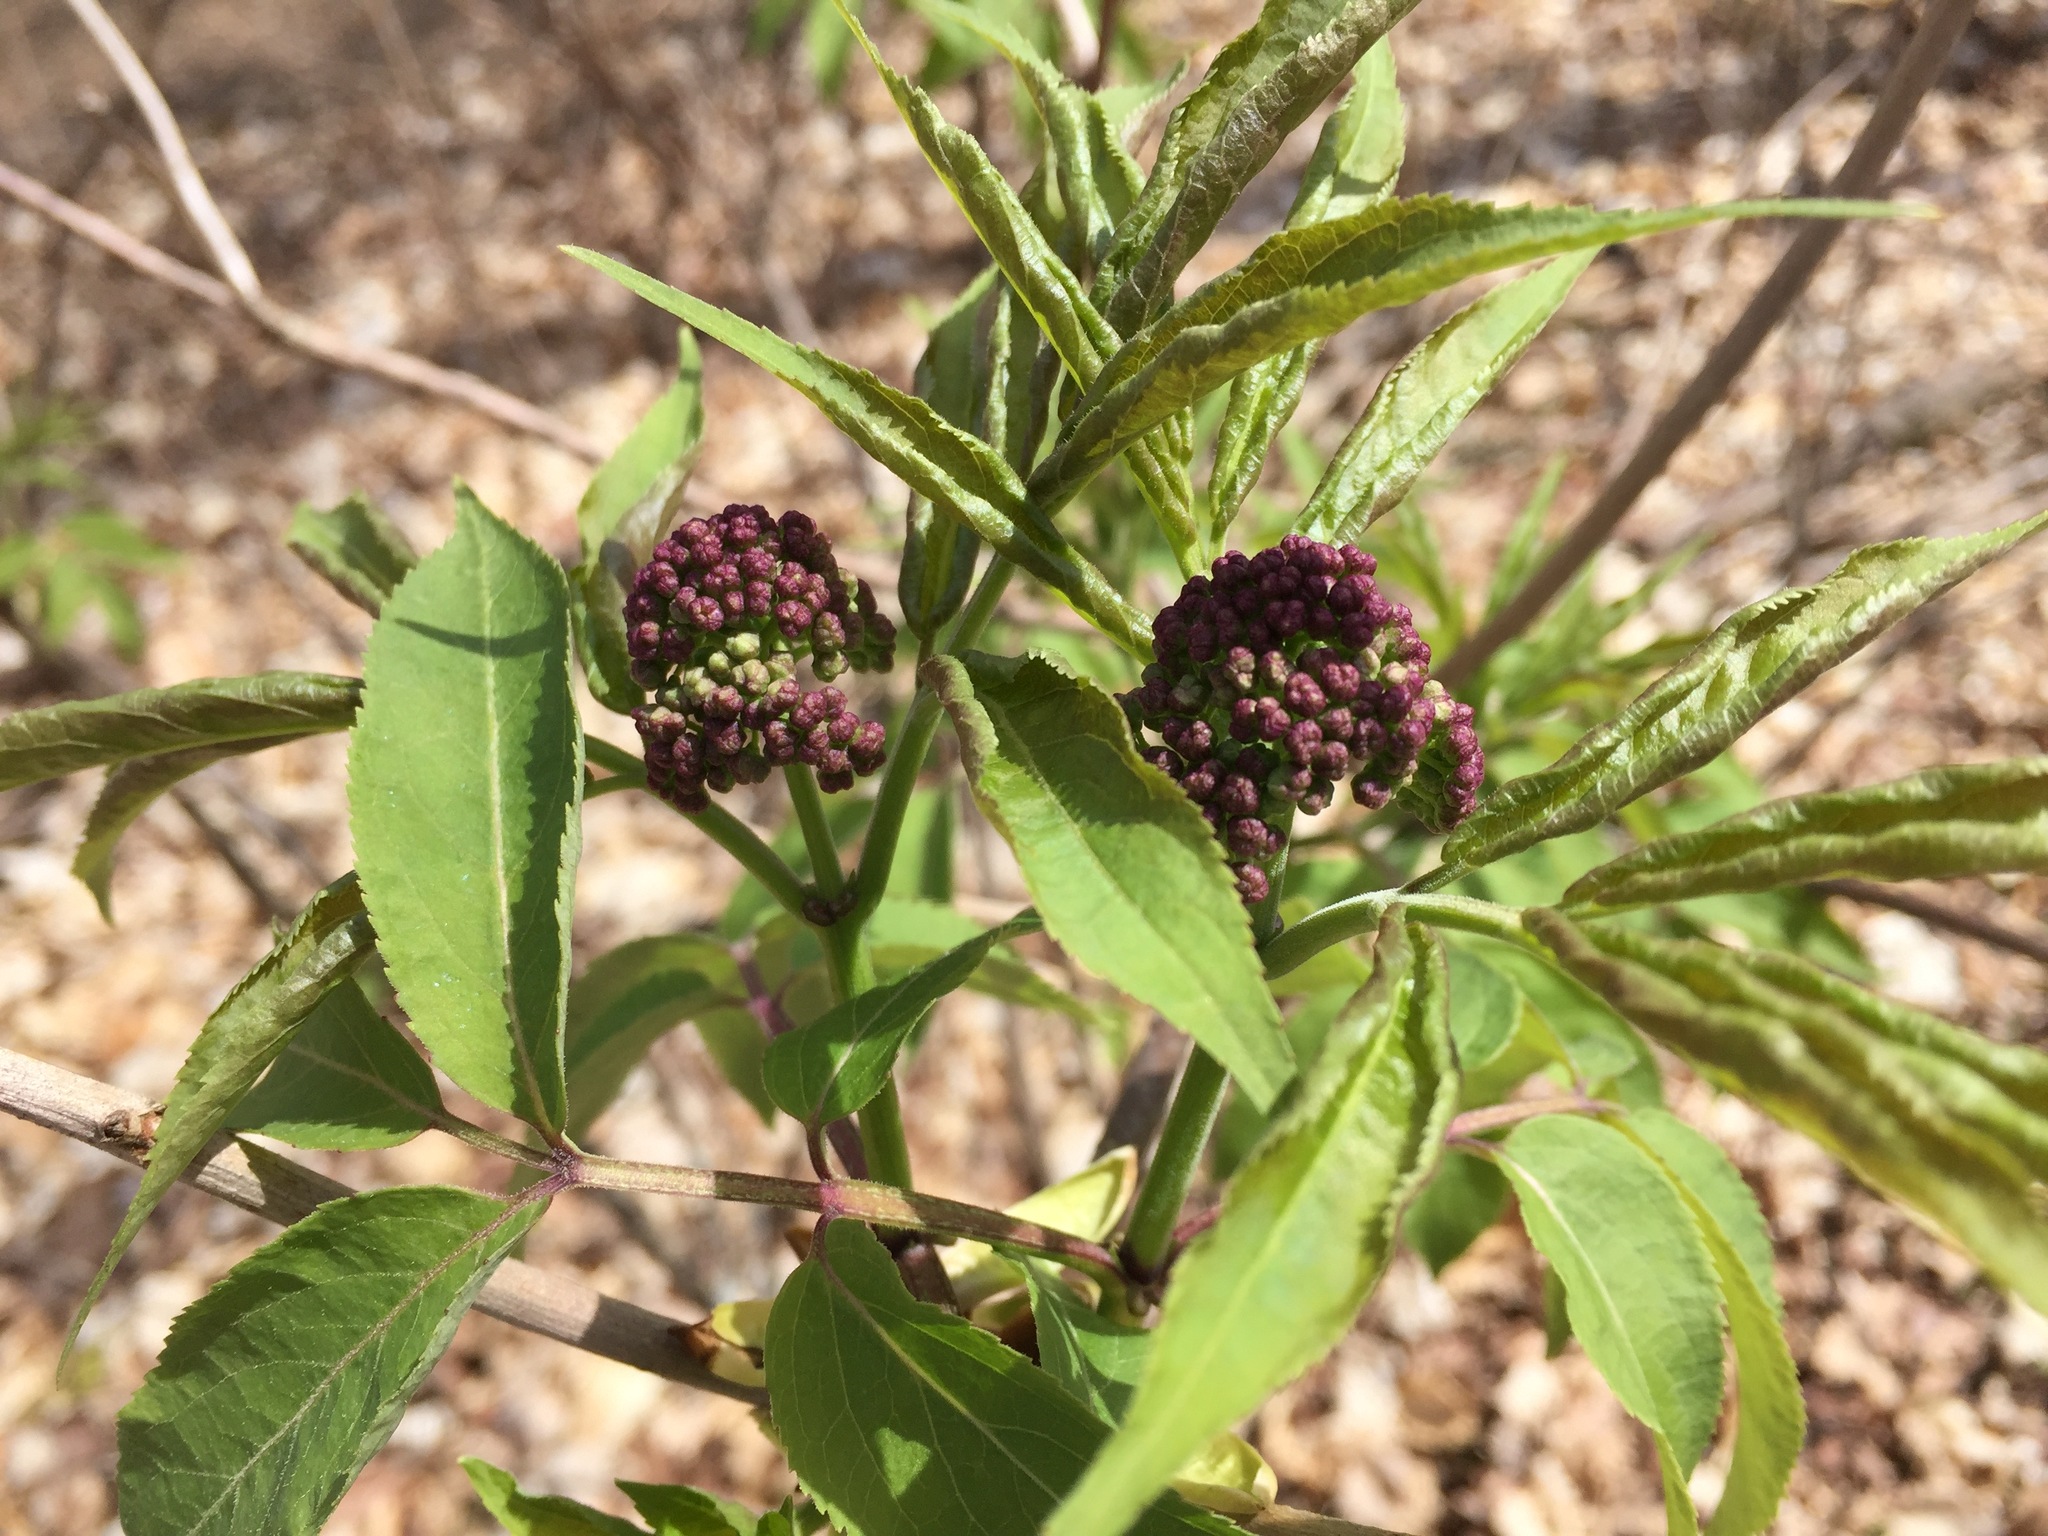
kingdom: Plantae
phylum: Tracheophyta
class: Magnoliopsida
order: Dipsacales
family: Viburnaceae
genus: Sambucus
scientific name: Sambucus racemosa
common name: Red-berried elder
